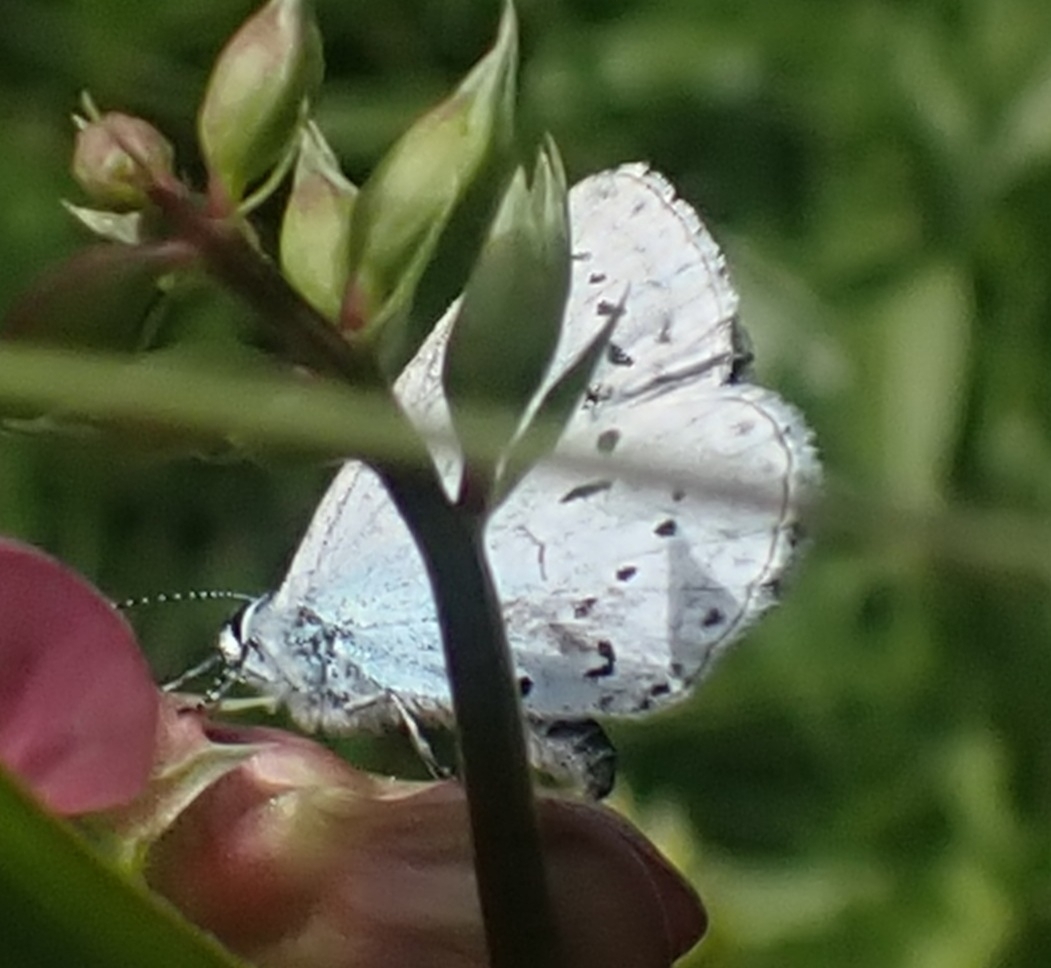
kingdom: Animalia
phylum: Arthropoda
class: Insecta
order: Lepidoptera
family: Lycaenidae
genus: Celastrina
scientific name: Celastrina argiolus
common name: Holly blue
